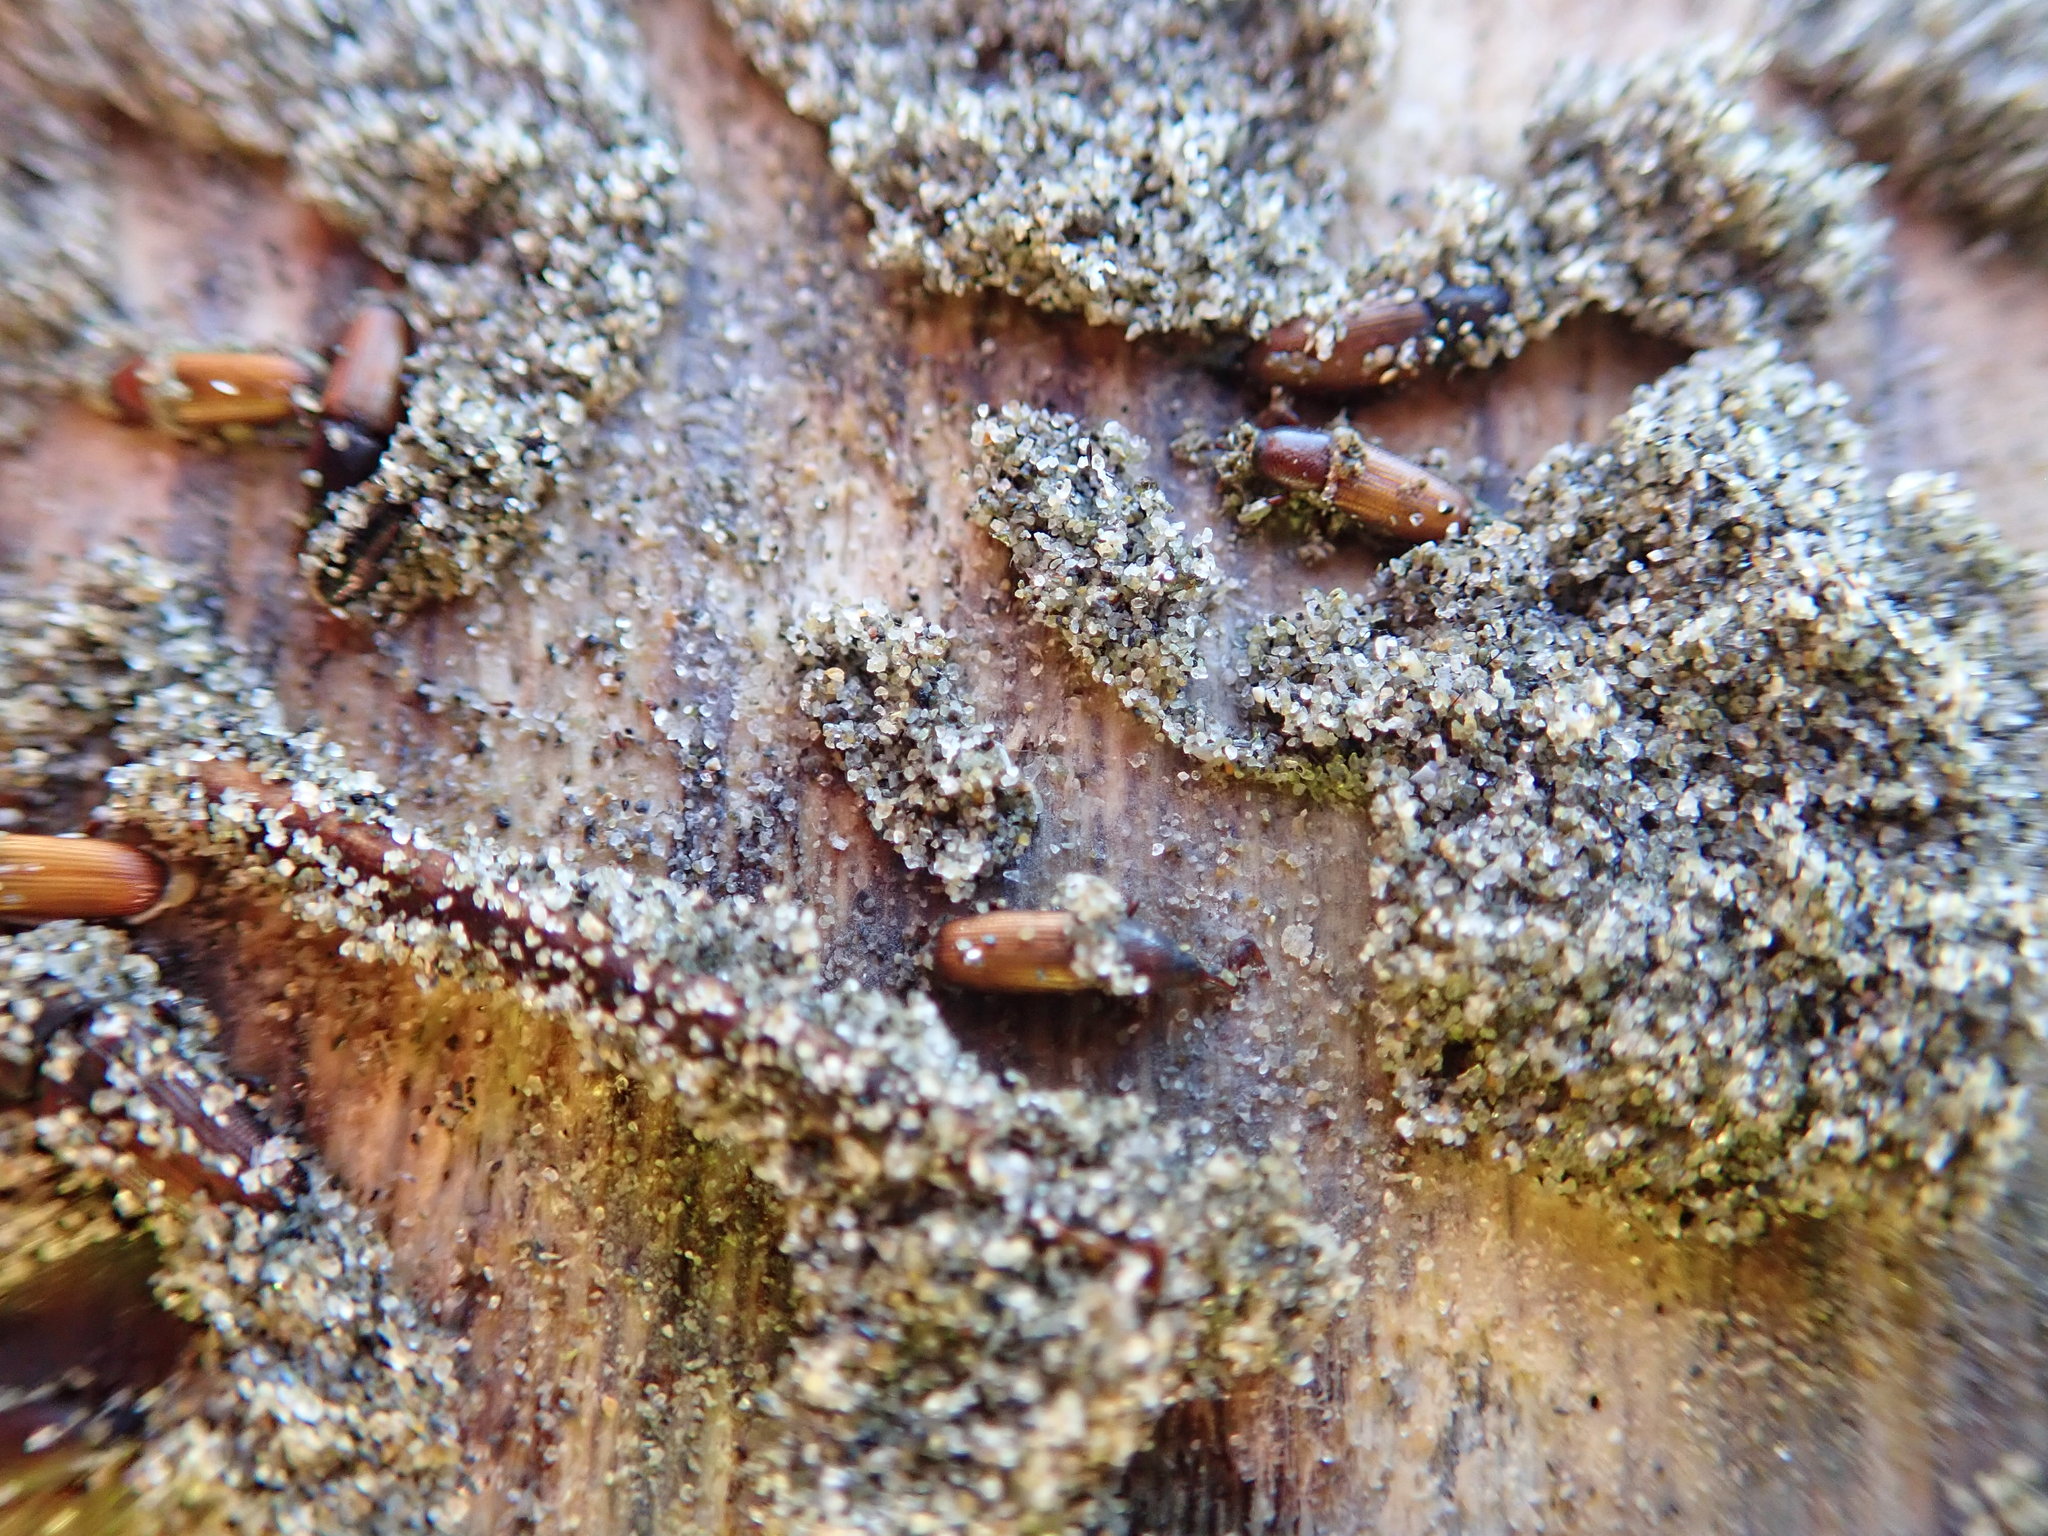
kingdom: Animalia
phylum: Arthropoda
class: Insecta
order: Coleoptera
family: Curculionidae
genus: Mesites
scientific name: Mesites pallidipennis
